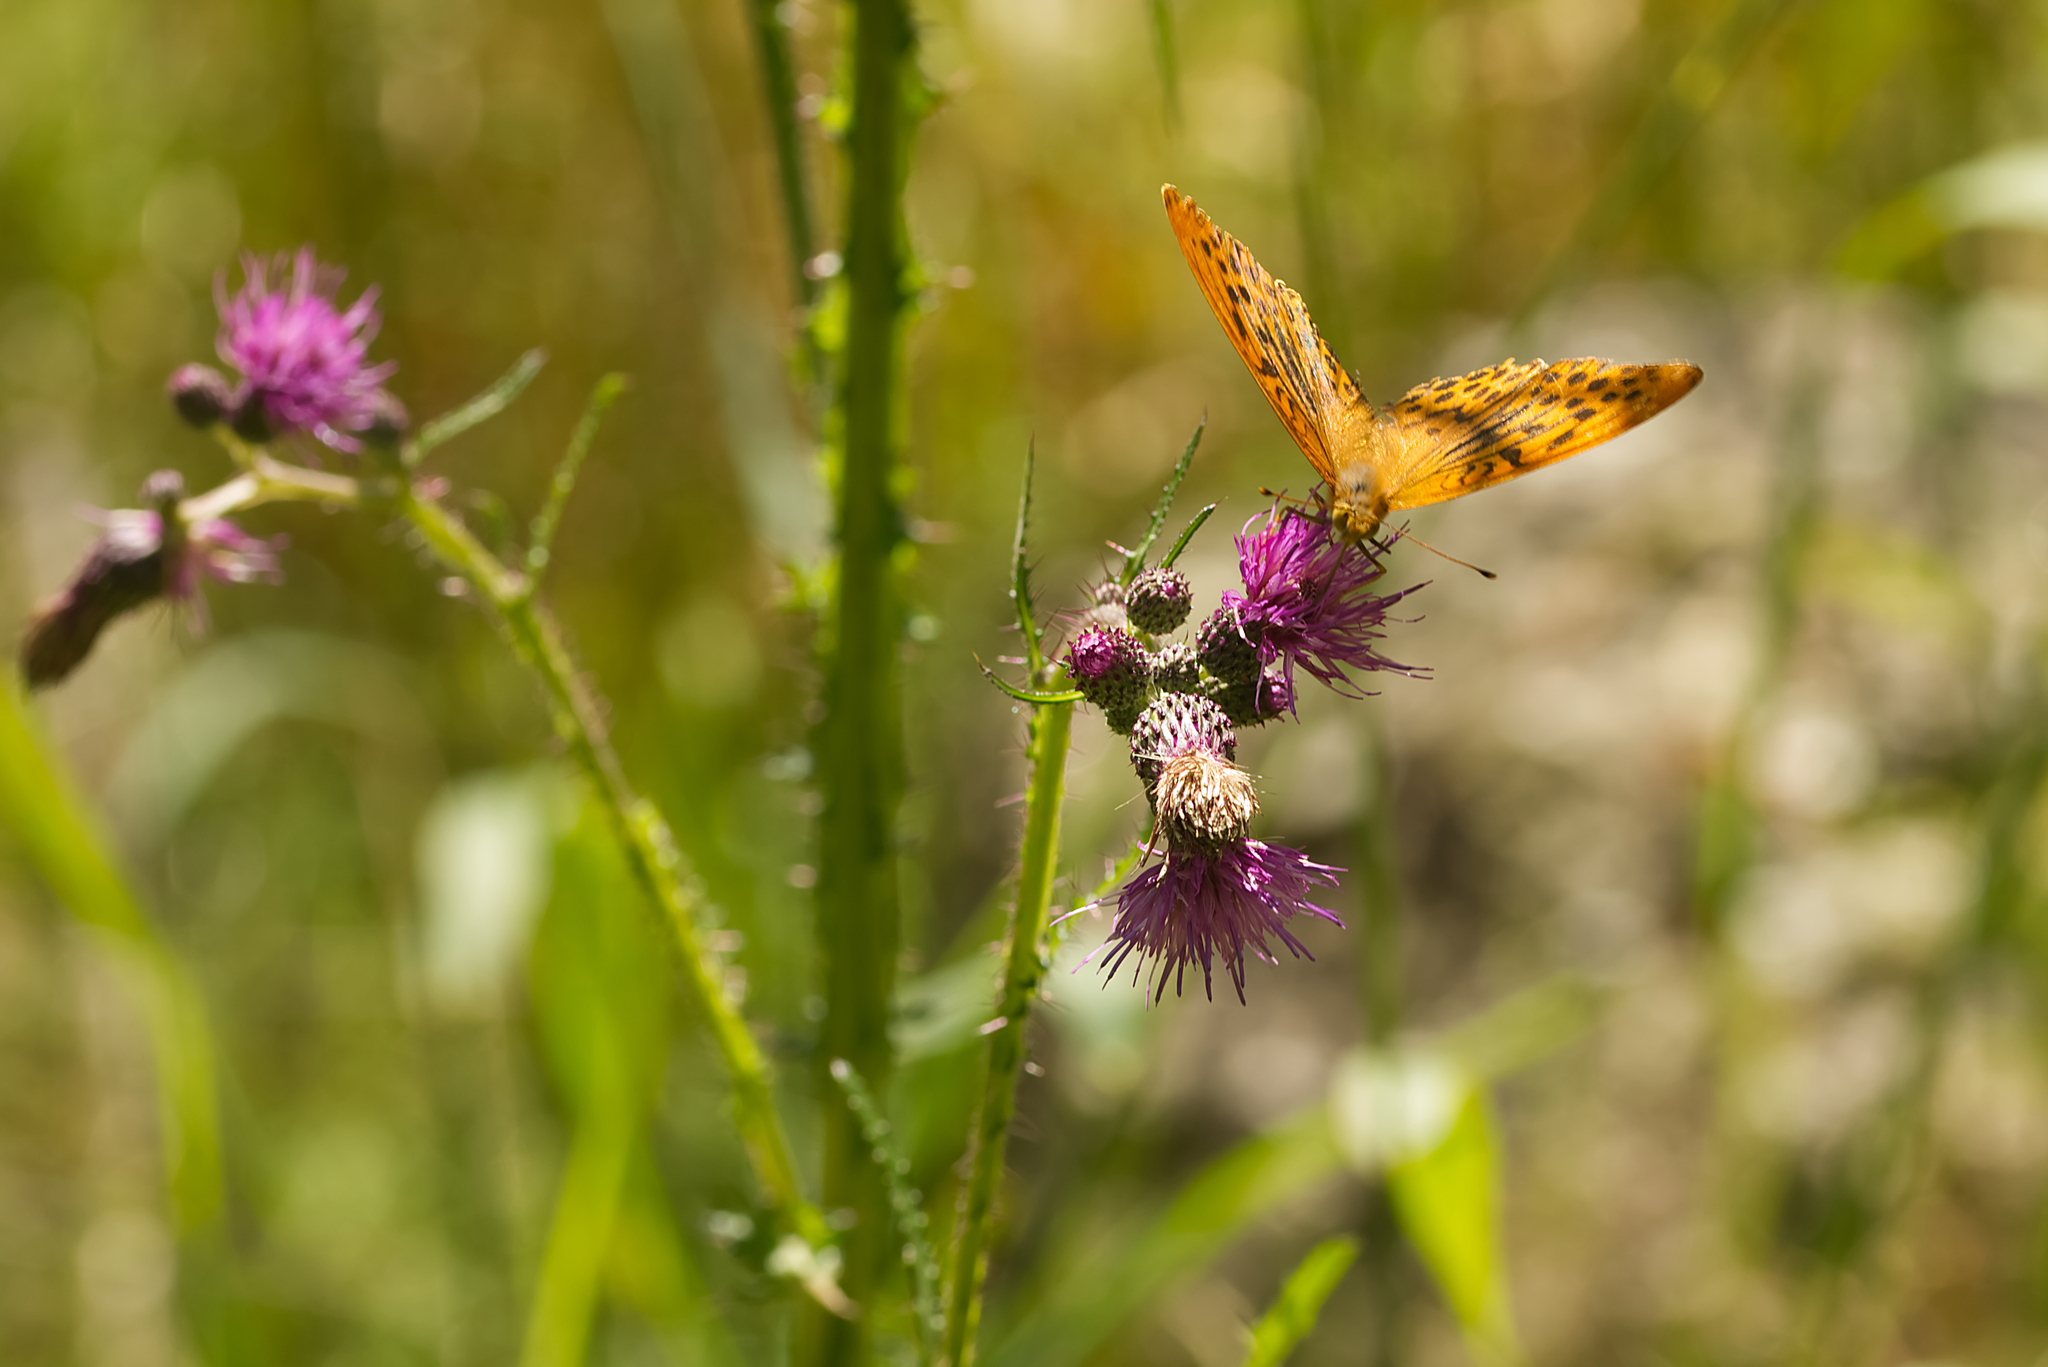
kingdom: Animalia
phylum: Arthropoda
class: Insecta
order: Lepidoptera
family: Nymphalidae
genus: Argynnis
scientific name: Argynnis paphia
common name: Silver-washed fritillary
